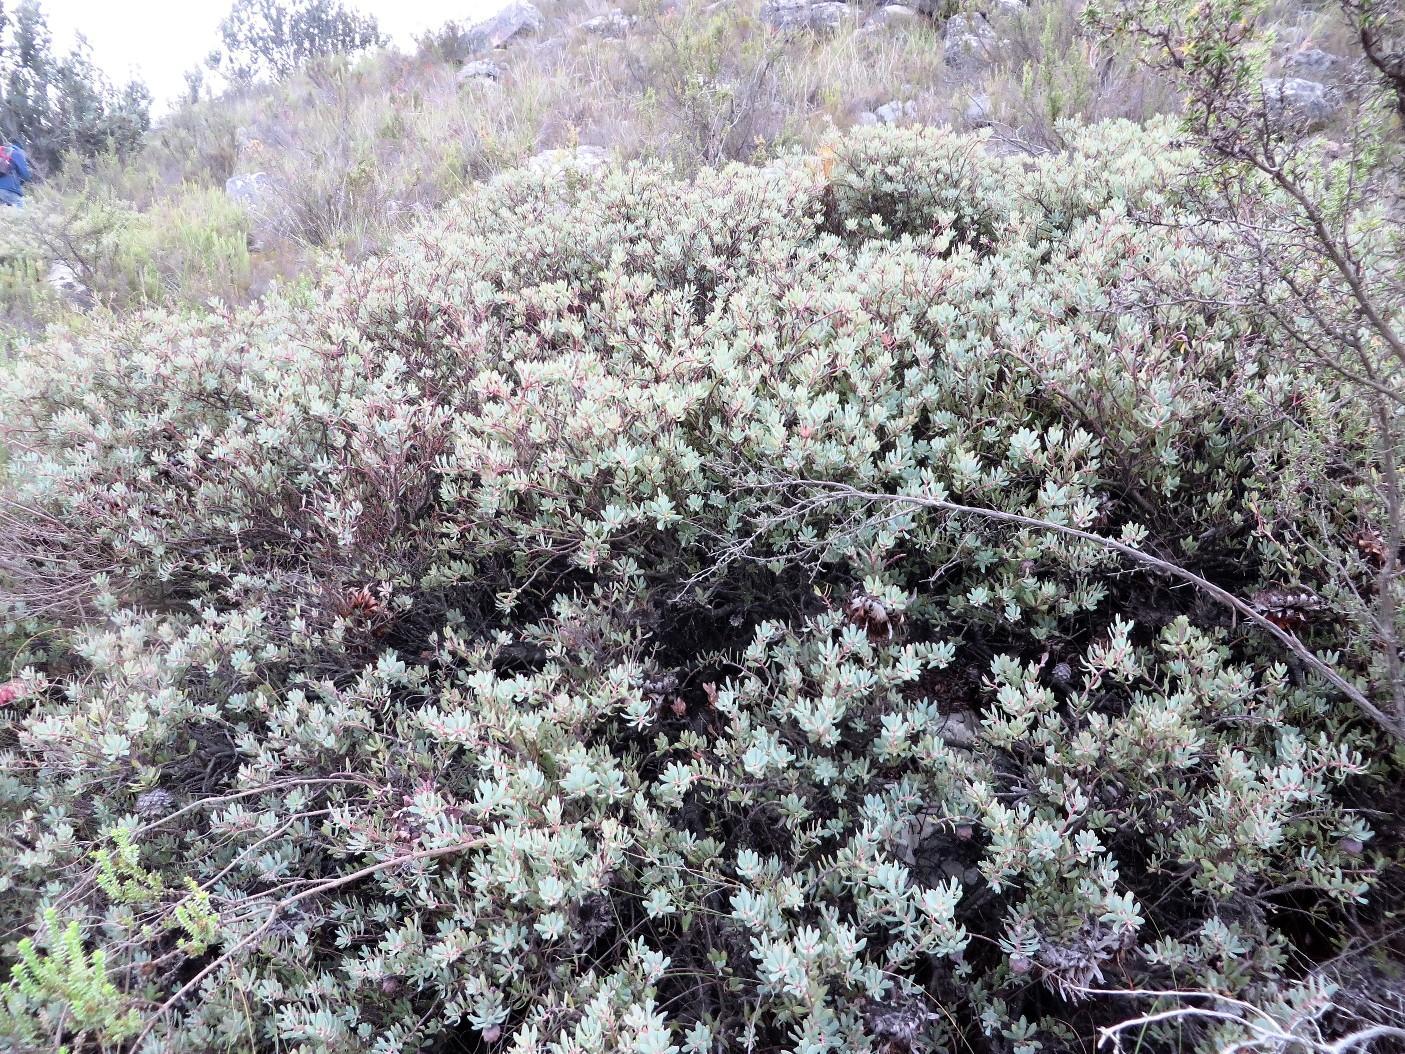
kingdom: Plantae
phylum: Tracheophyta
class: Magnoliopsida
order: Proteales
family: Proteaceae
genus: Protea
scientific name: Protea sulphurea
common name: Sulphur sugarbush
